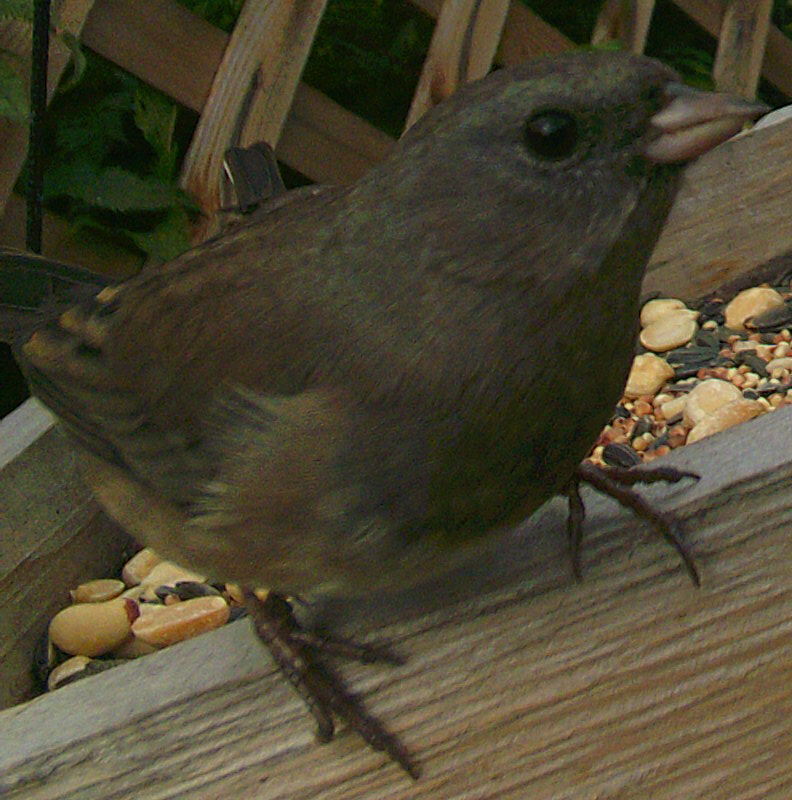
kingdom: Animalia
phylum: Chordata
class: Aves
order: Passeriformes
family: Passerellidae
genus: Junco
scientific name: Junco hyemalis
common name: Dark-eyed junco
